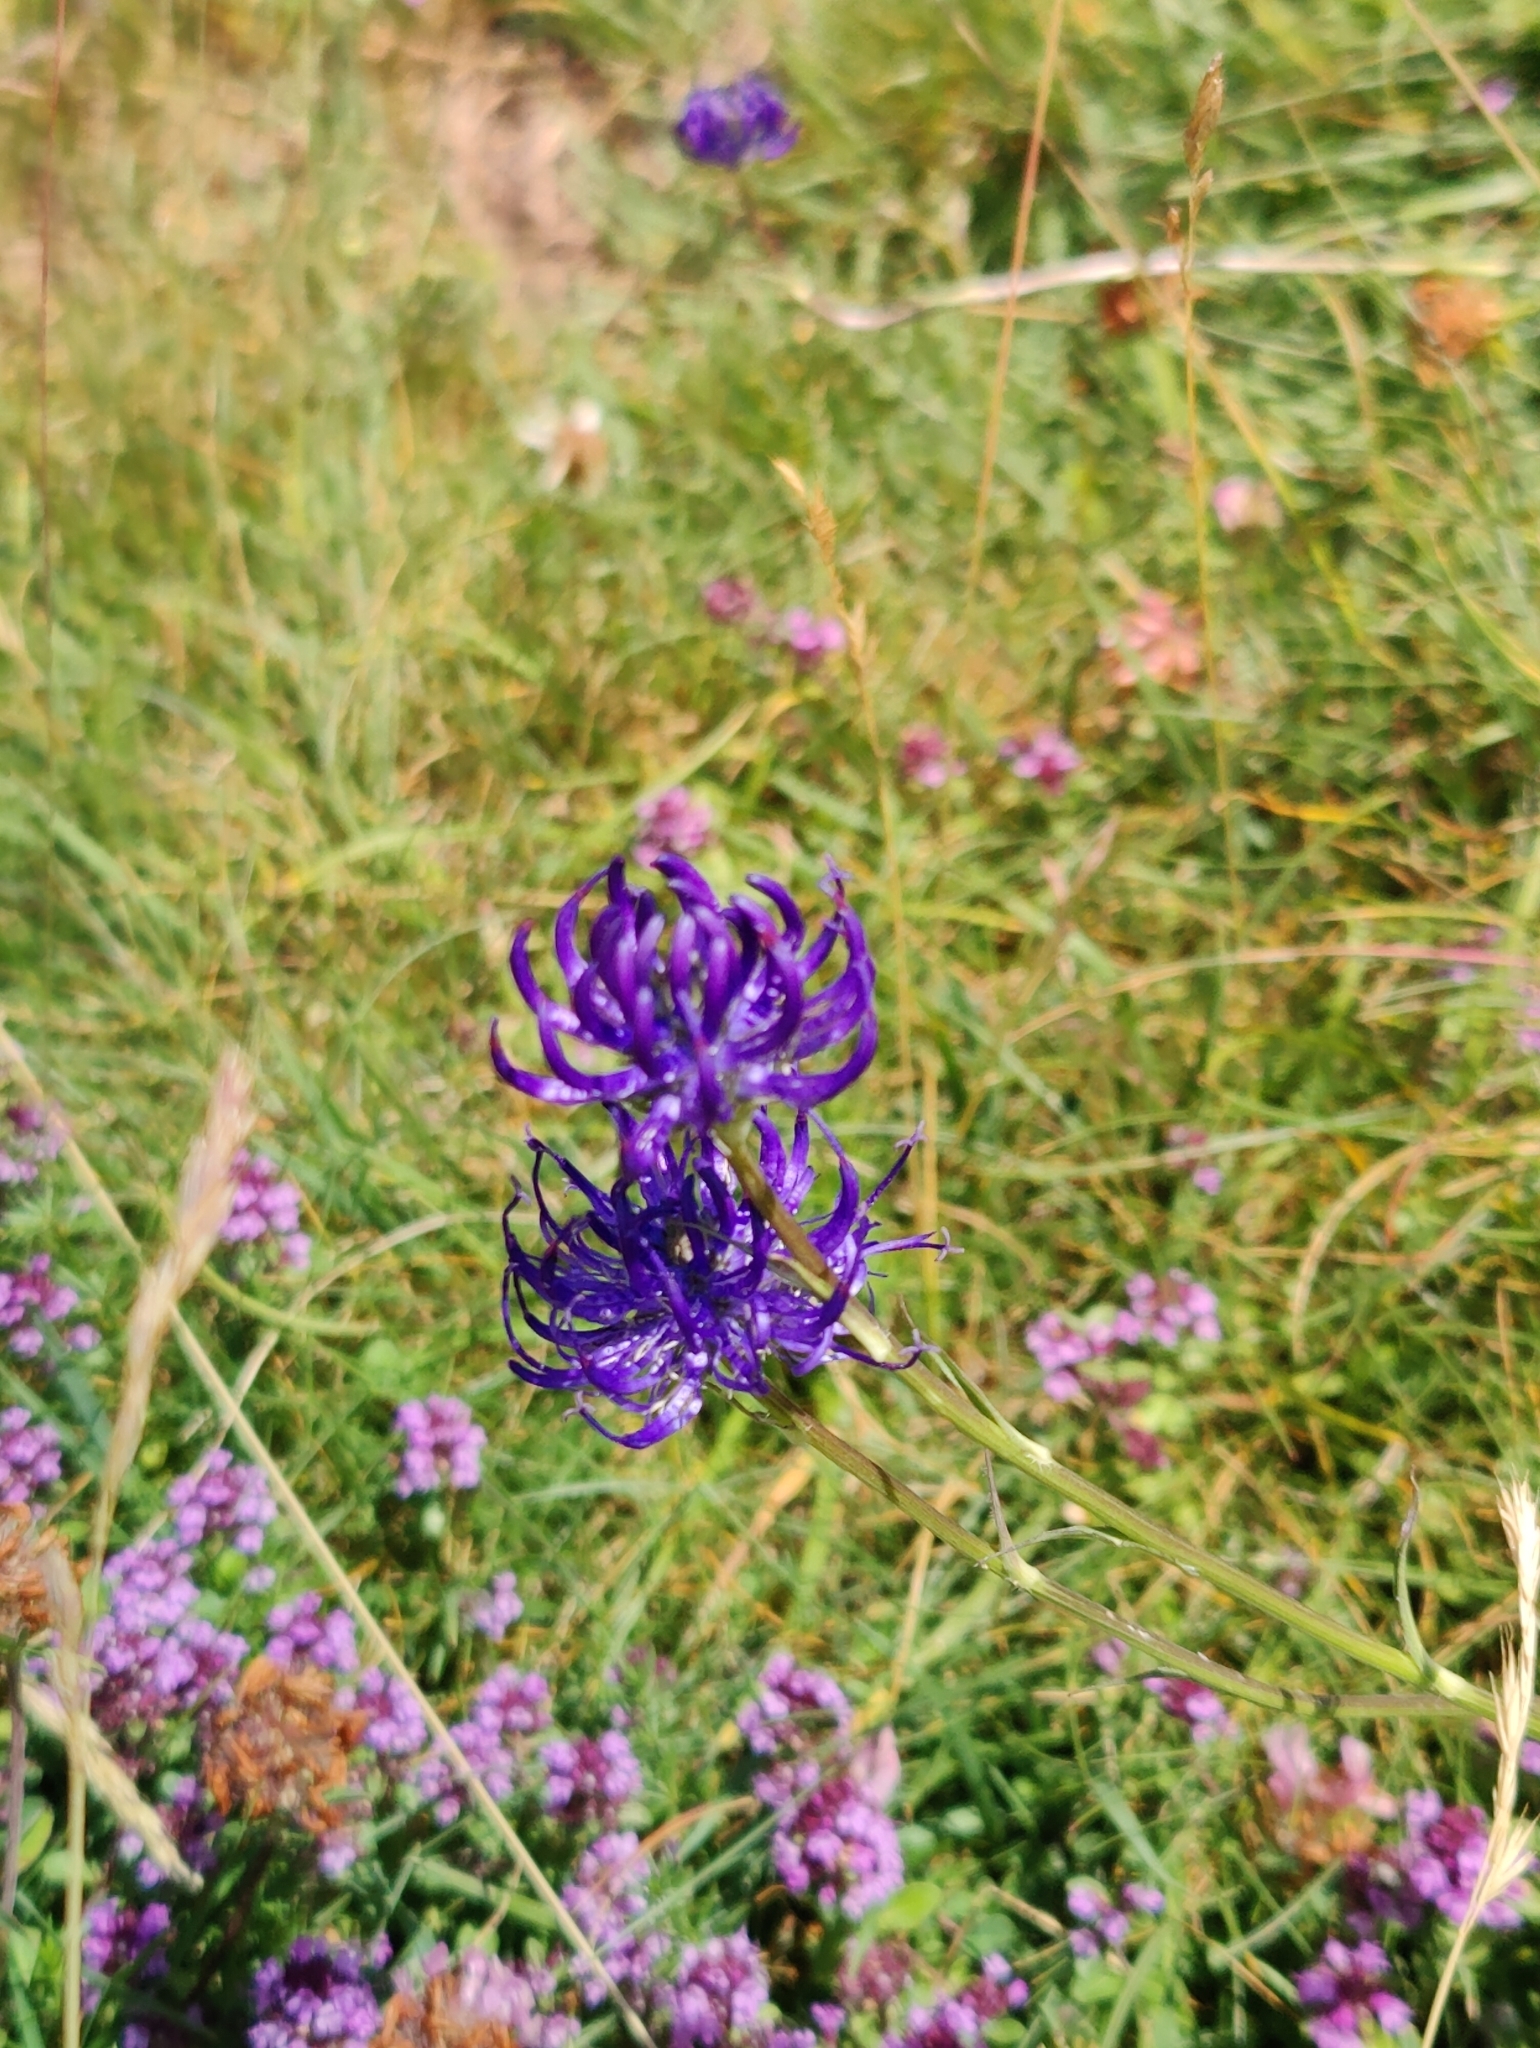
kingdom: Plantae
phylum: Tracheophyta
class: Magnoliopsida
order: Asterales
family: Campanulaceae
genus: Phyteuma
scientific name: Phyteuma orbiculare
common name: Round-headed rampion
